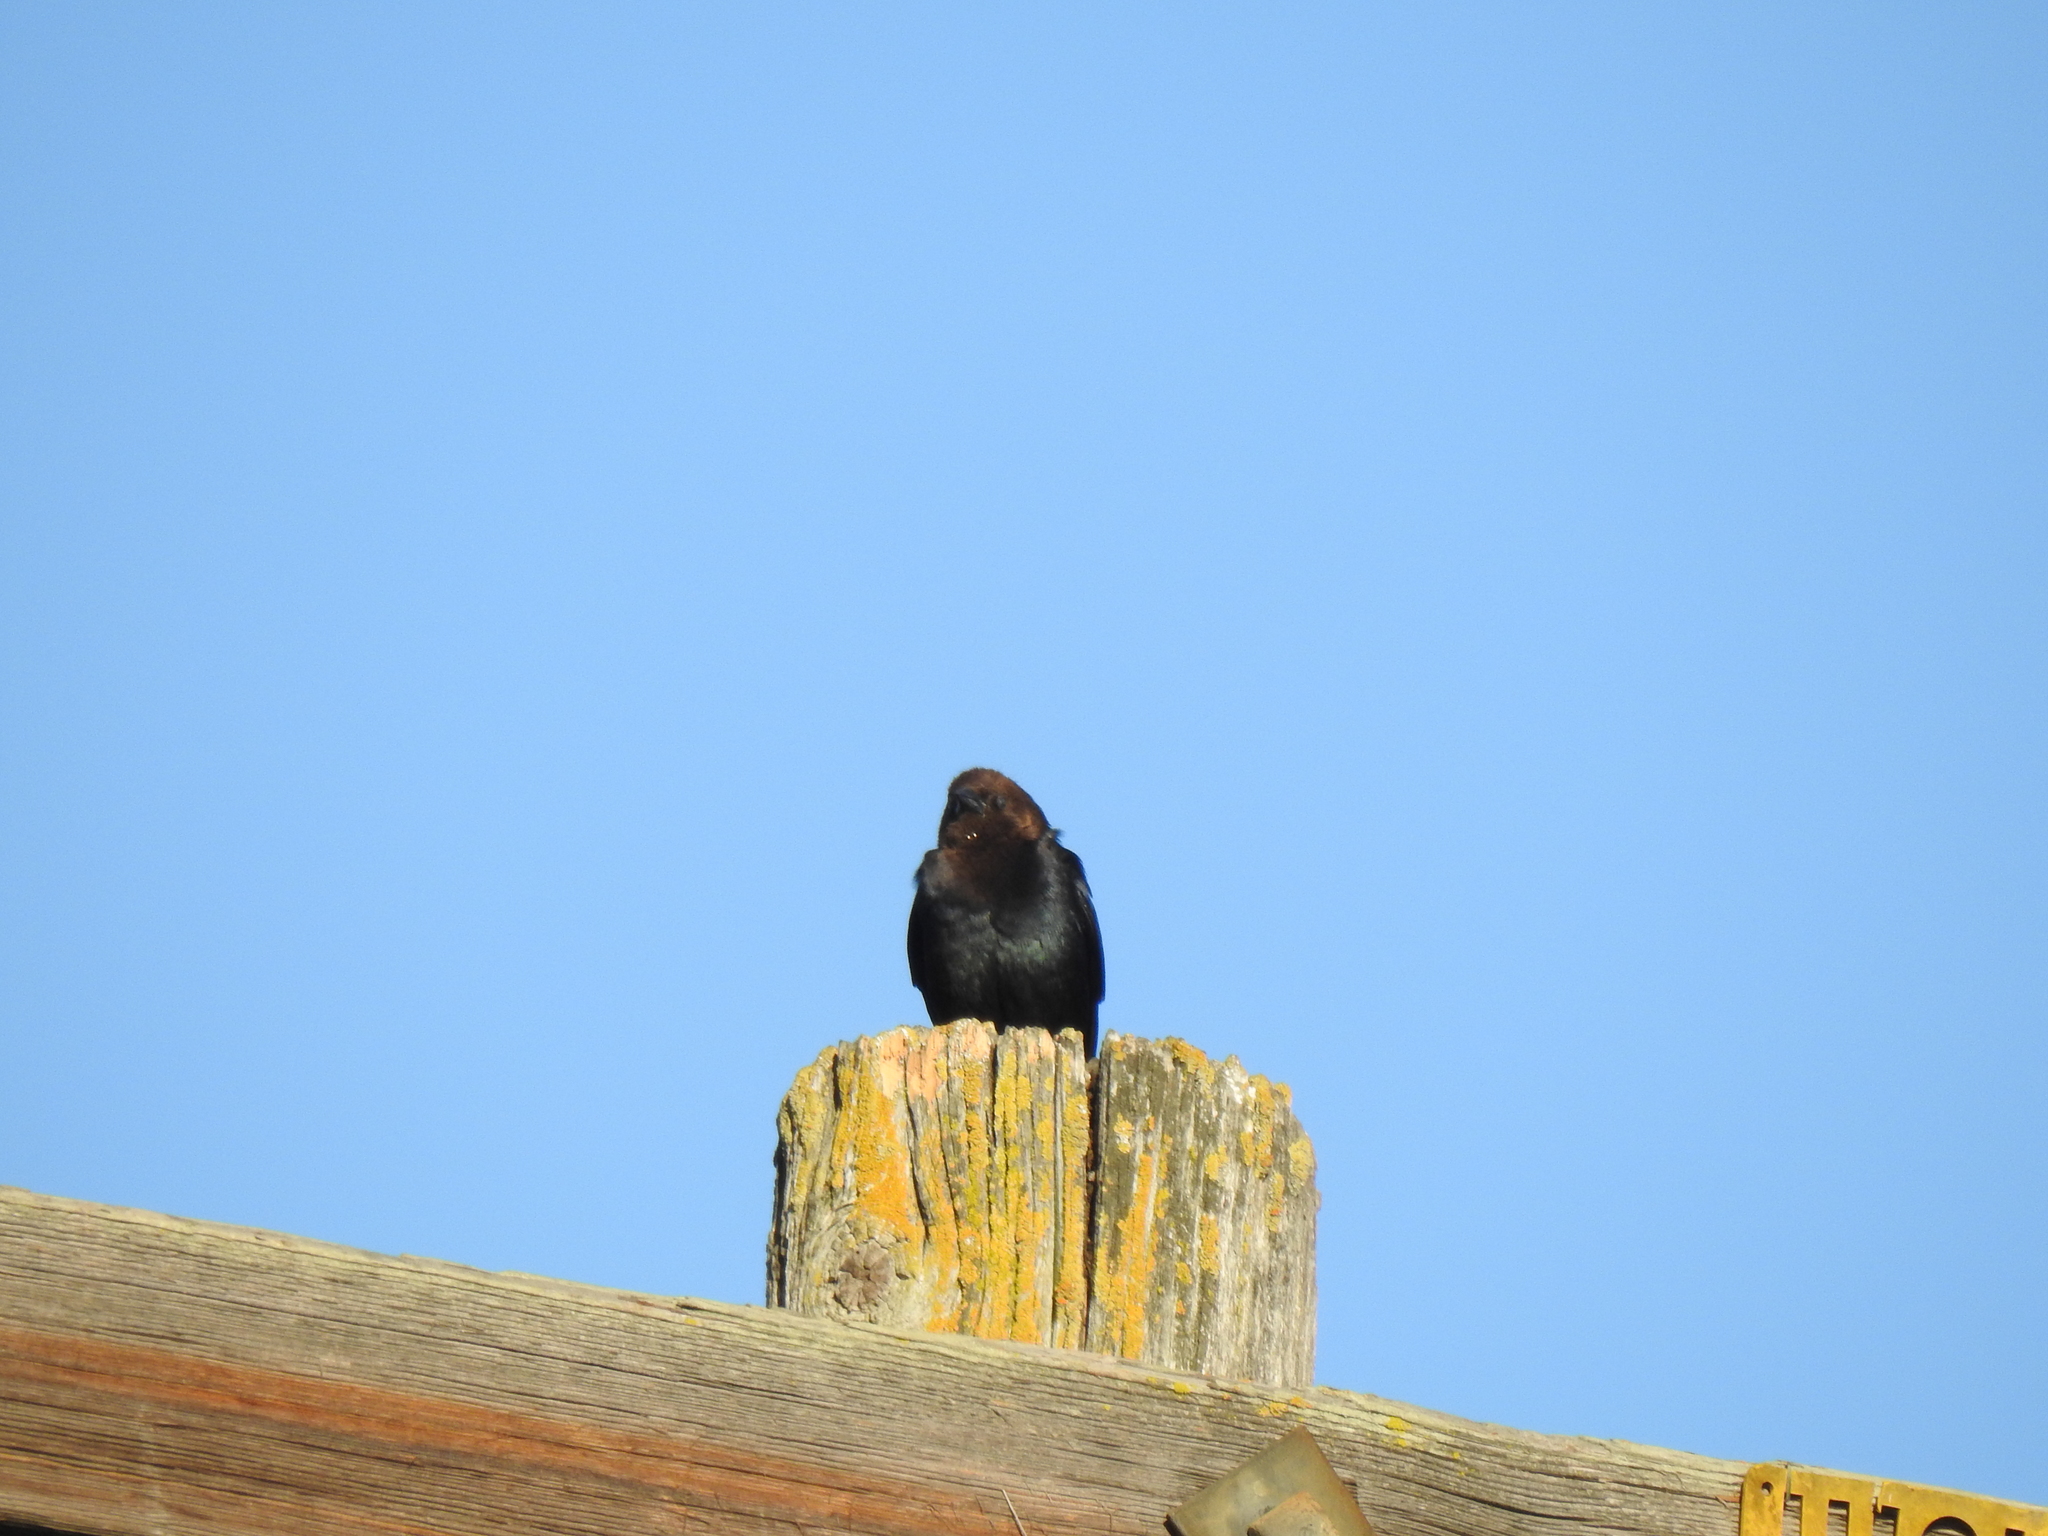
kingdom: Animalia
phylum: Chordata
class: Aves
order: Passeriformes
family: Icteridae
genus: Molothrus
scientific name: Molothrus ater
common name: Brown-headed cowbird
